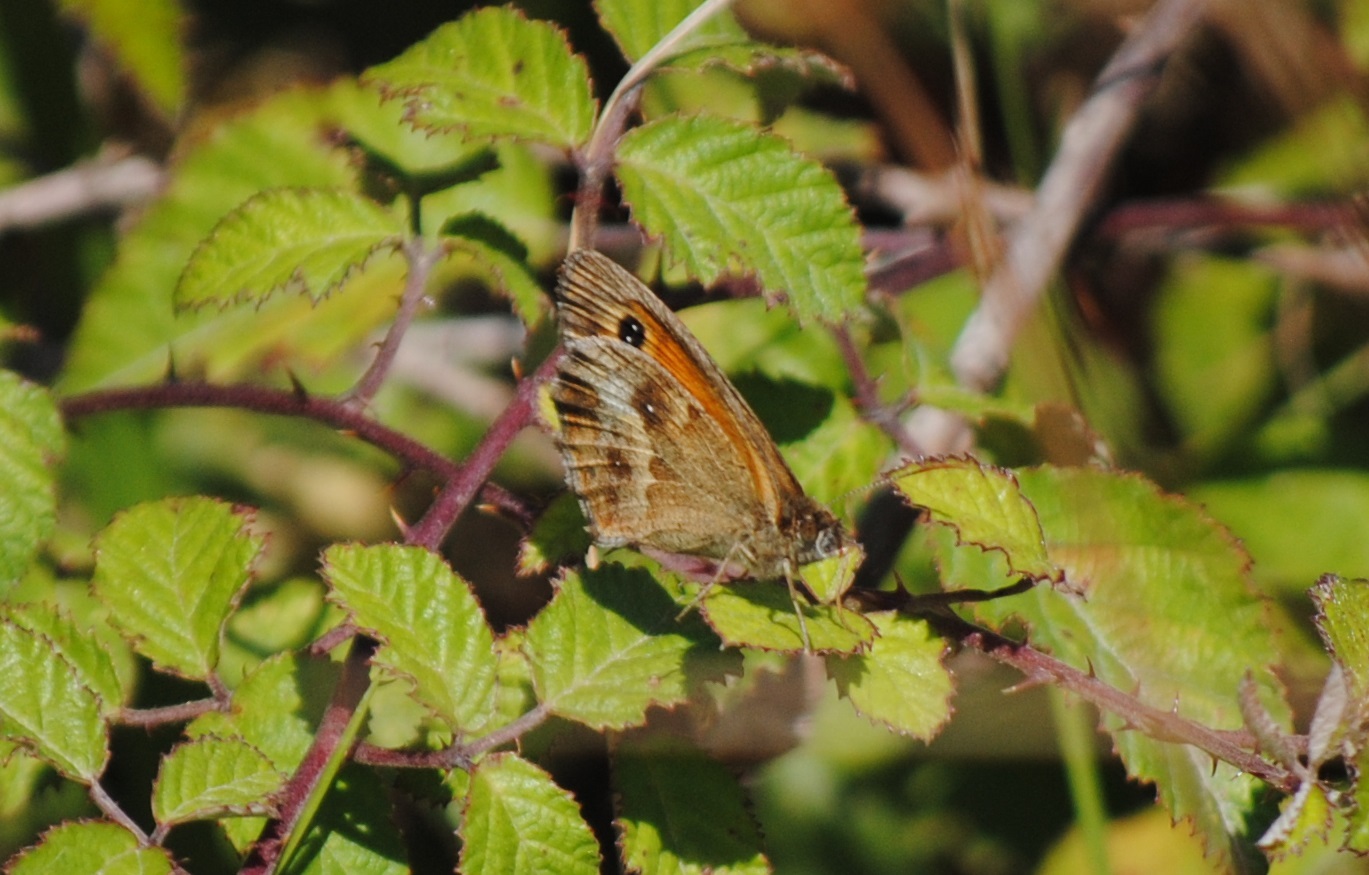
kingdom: Animalia
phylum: Arthropoda
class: Insecta
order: Lepidoptera
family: Nymphalidae
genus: Pyronia
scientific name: Pyronia tithonus
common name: Gatekeeper
